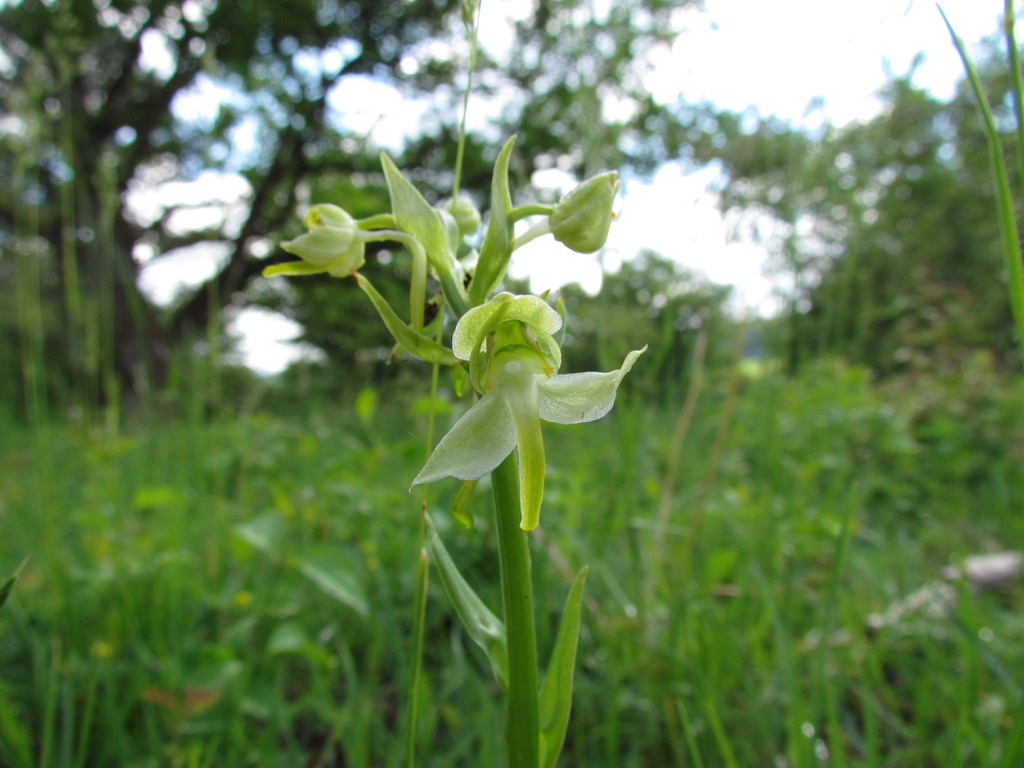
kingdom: Plantae
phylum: Tracheophyta
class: Liliopsida
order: Asparagales
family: Orchidaceae
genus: Platanthera
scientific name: Platanthera chlorantha
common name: Greater butterfly-orchid
